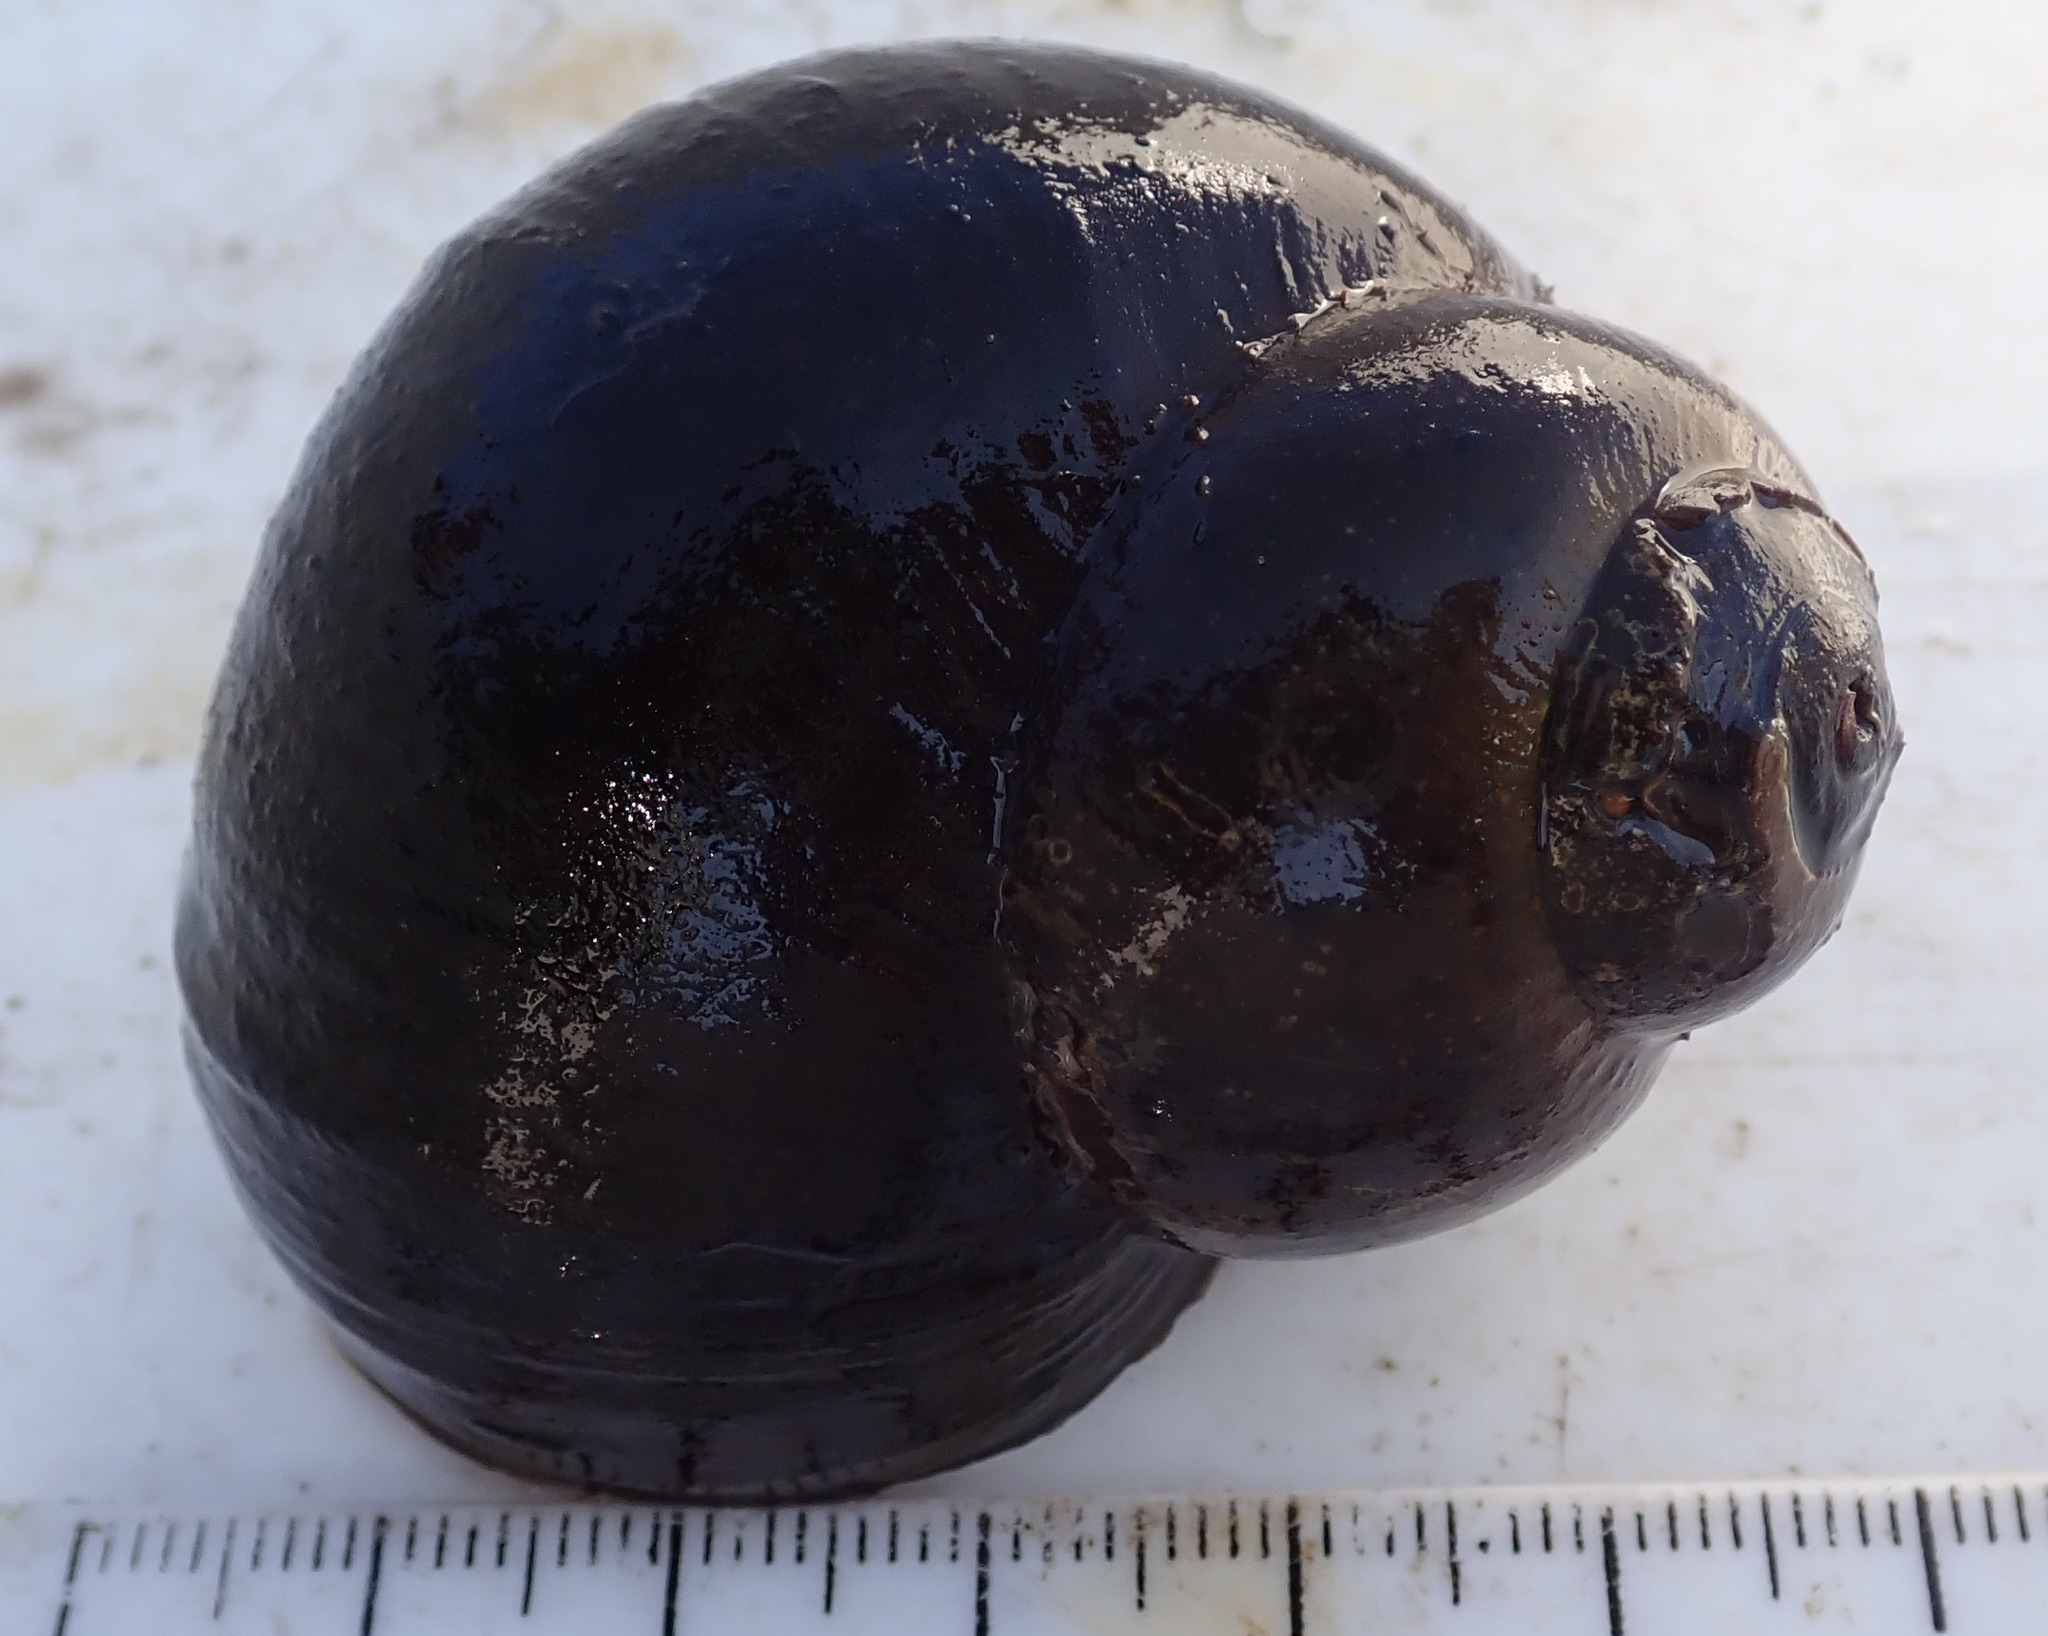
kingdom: Animalia
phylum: Mollusca
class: Gastropoda
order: Architaenioglossa
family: Ampullariidae
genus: Lanistes
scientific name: Lanistes ovum
